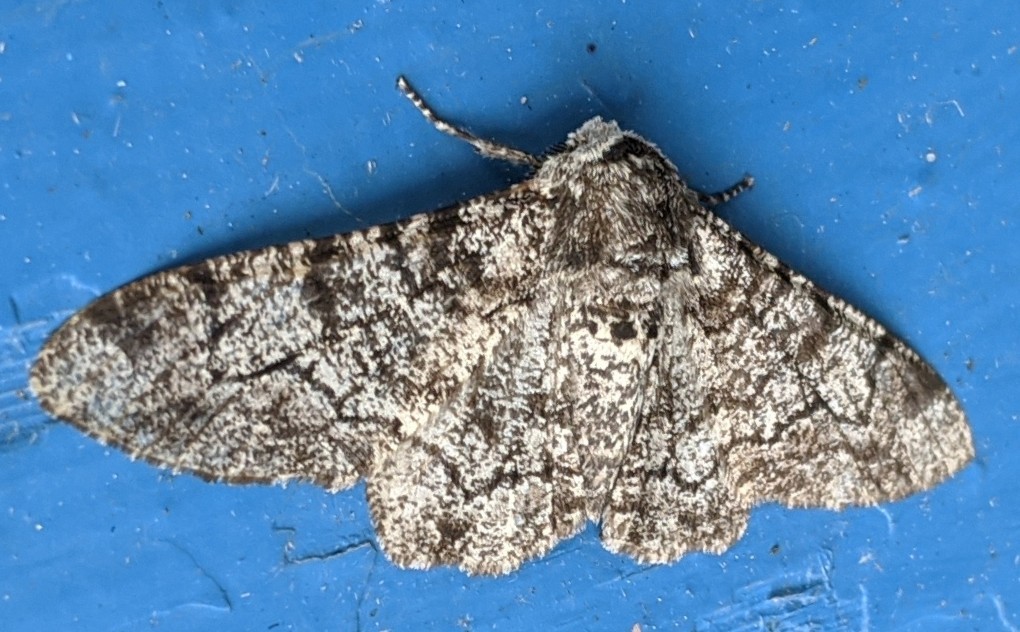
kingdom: Animalia
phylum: Arthropoda
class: Insecta
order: Lepidoptera
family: Geometridae
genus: Biston
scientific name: Biston betularia
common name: Peppered moth
